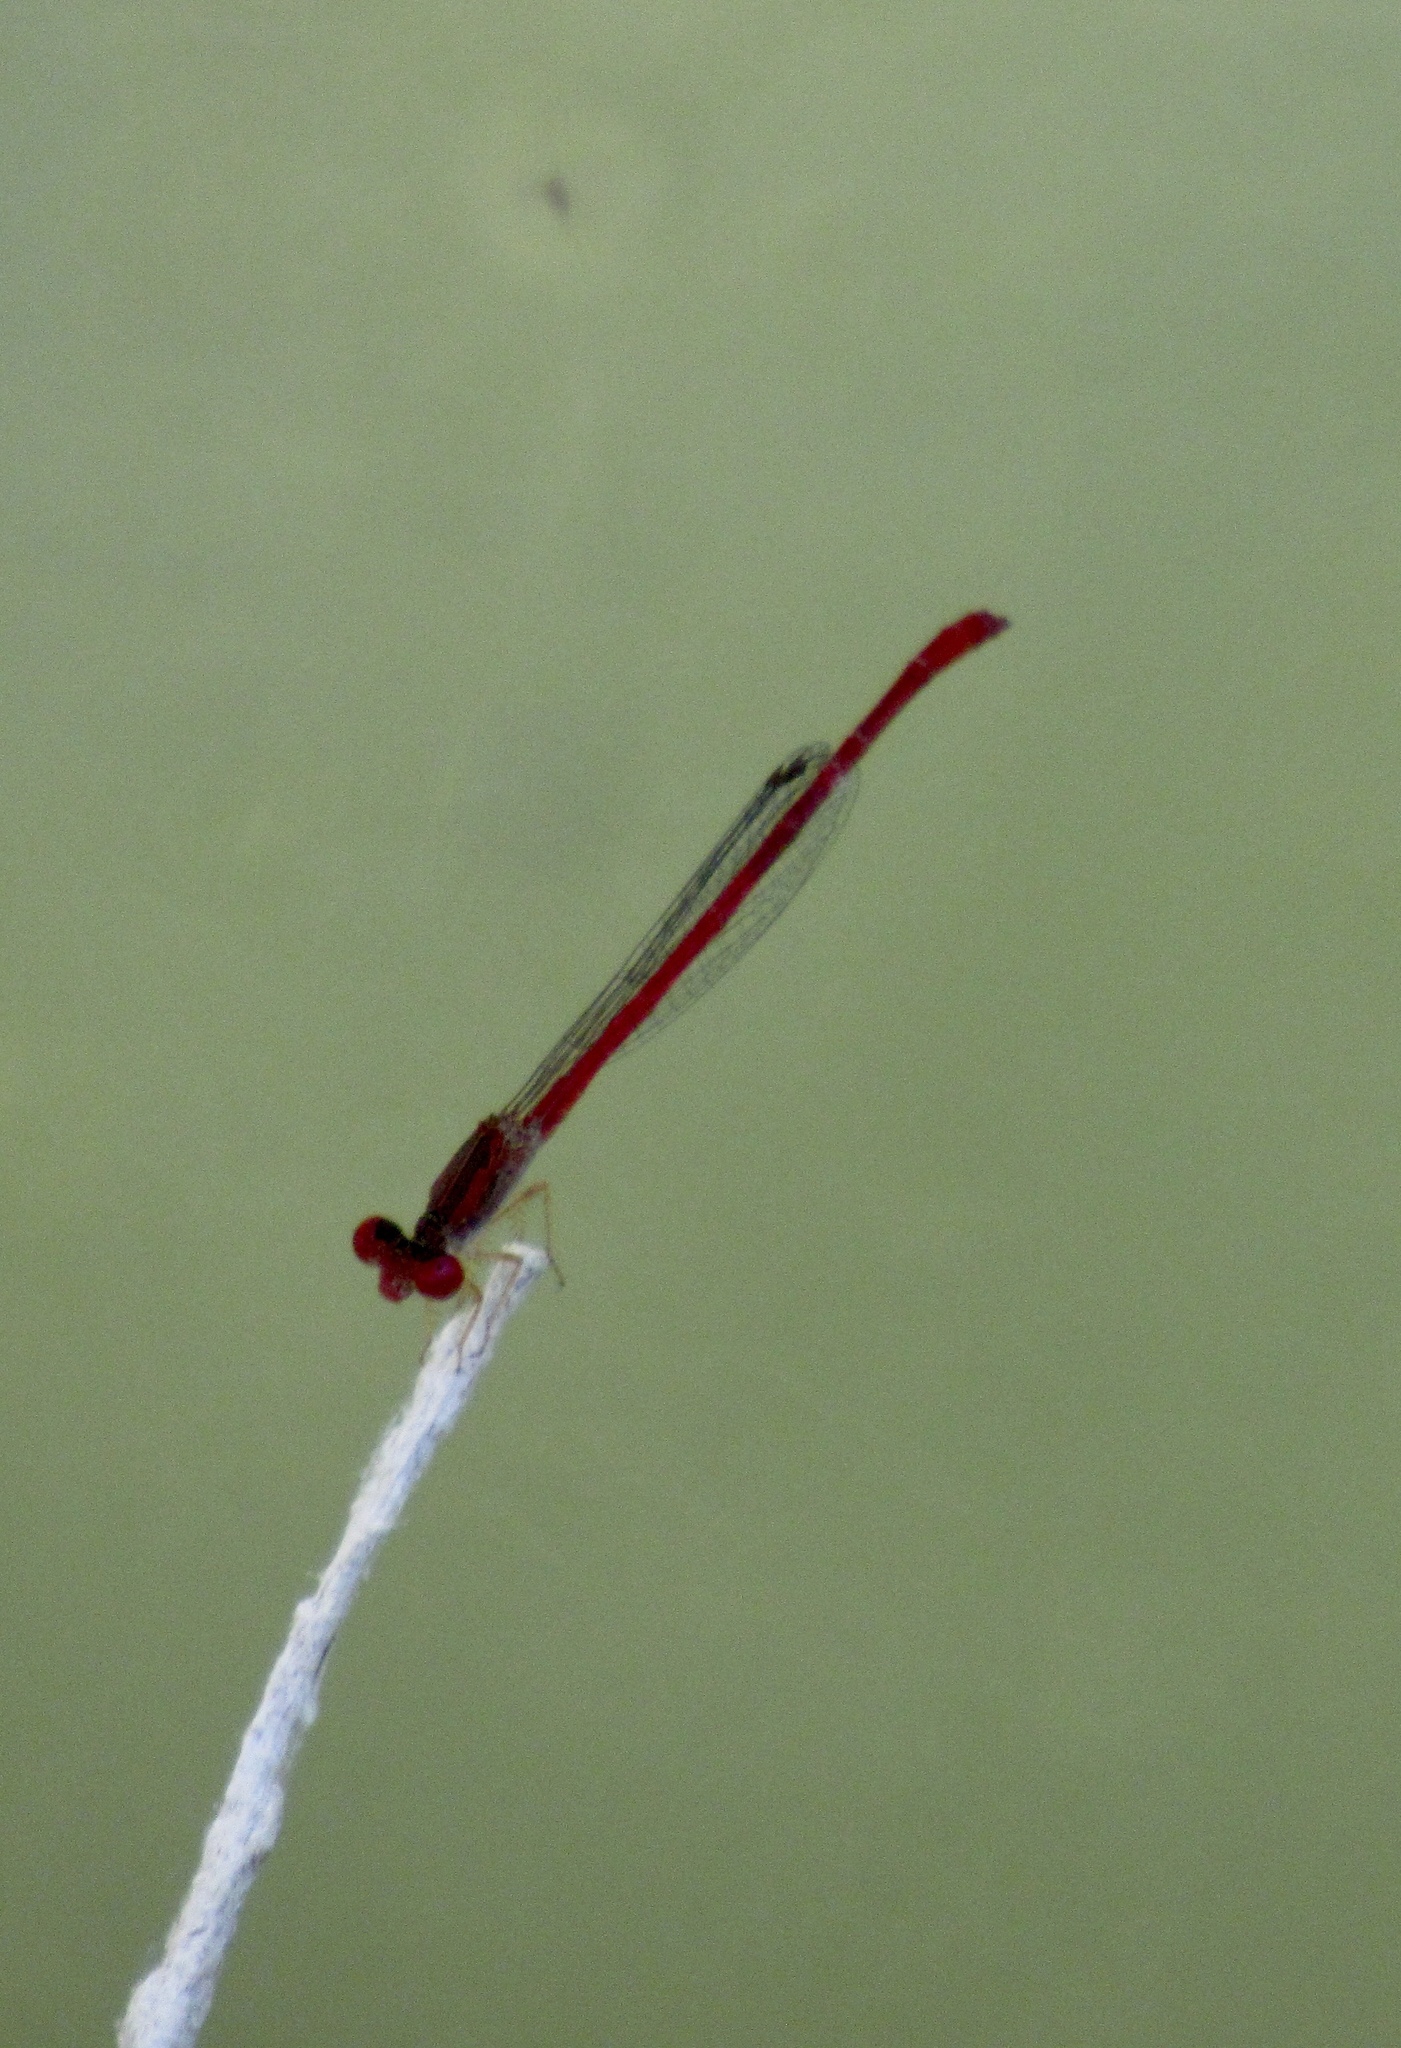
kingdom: Animalia
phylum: Arthropoda
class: Insecta
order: Odonata
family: Coenagrionidae
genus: Telebasis
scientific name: Telebasis salva
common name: Desert firetail
